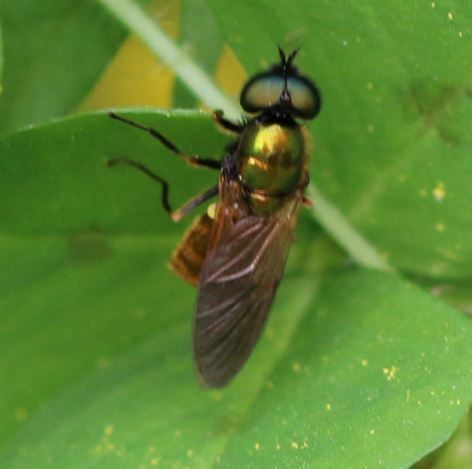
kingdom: Animalia
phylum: Arthropoda
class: Insecta
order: Diptera
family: Stratiomyidae
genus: Chloromyia
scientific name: Chloromyia formosa
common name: Soldier fly
